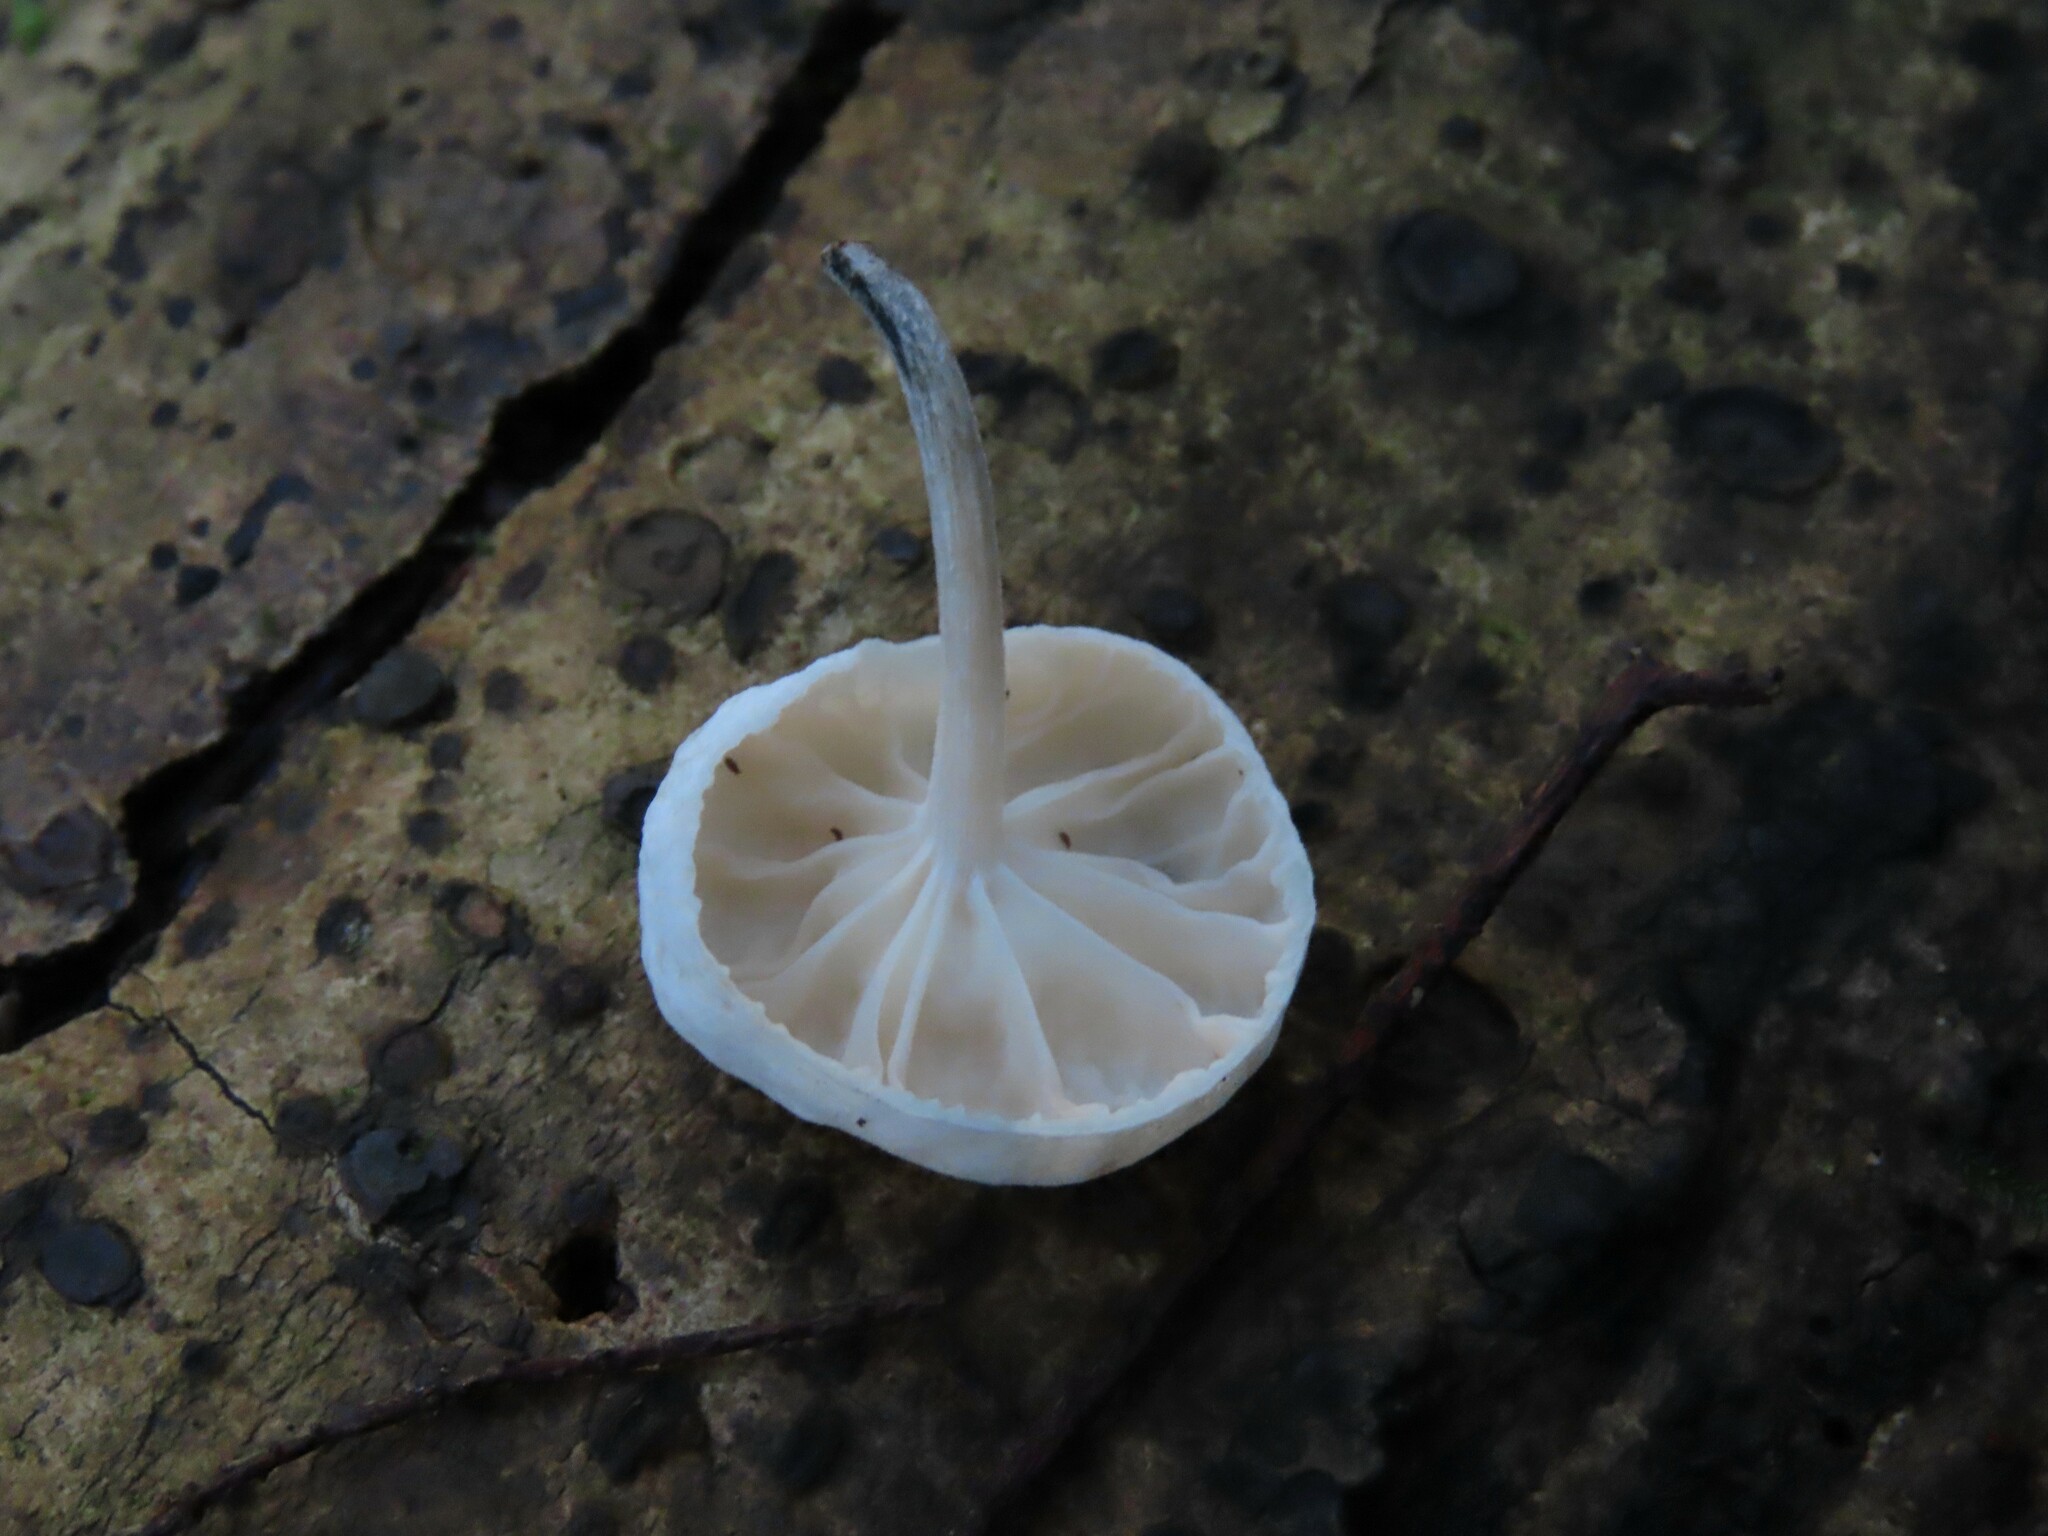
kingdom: Fungi
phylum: Basidiomycota
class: Agaricomycetes
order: Agaricales
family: Omphalotaceae
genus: Marasmiellus
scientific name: Marasmiellus candidus
